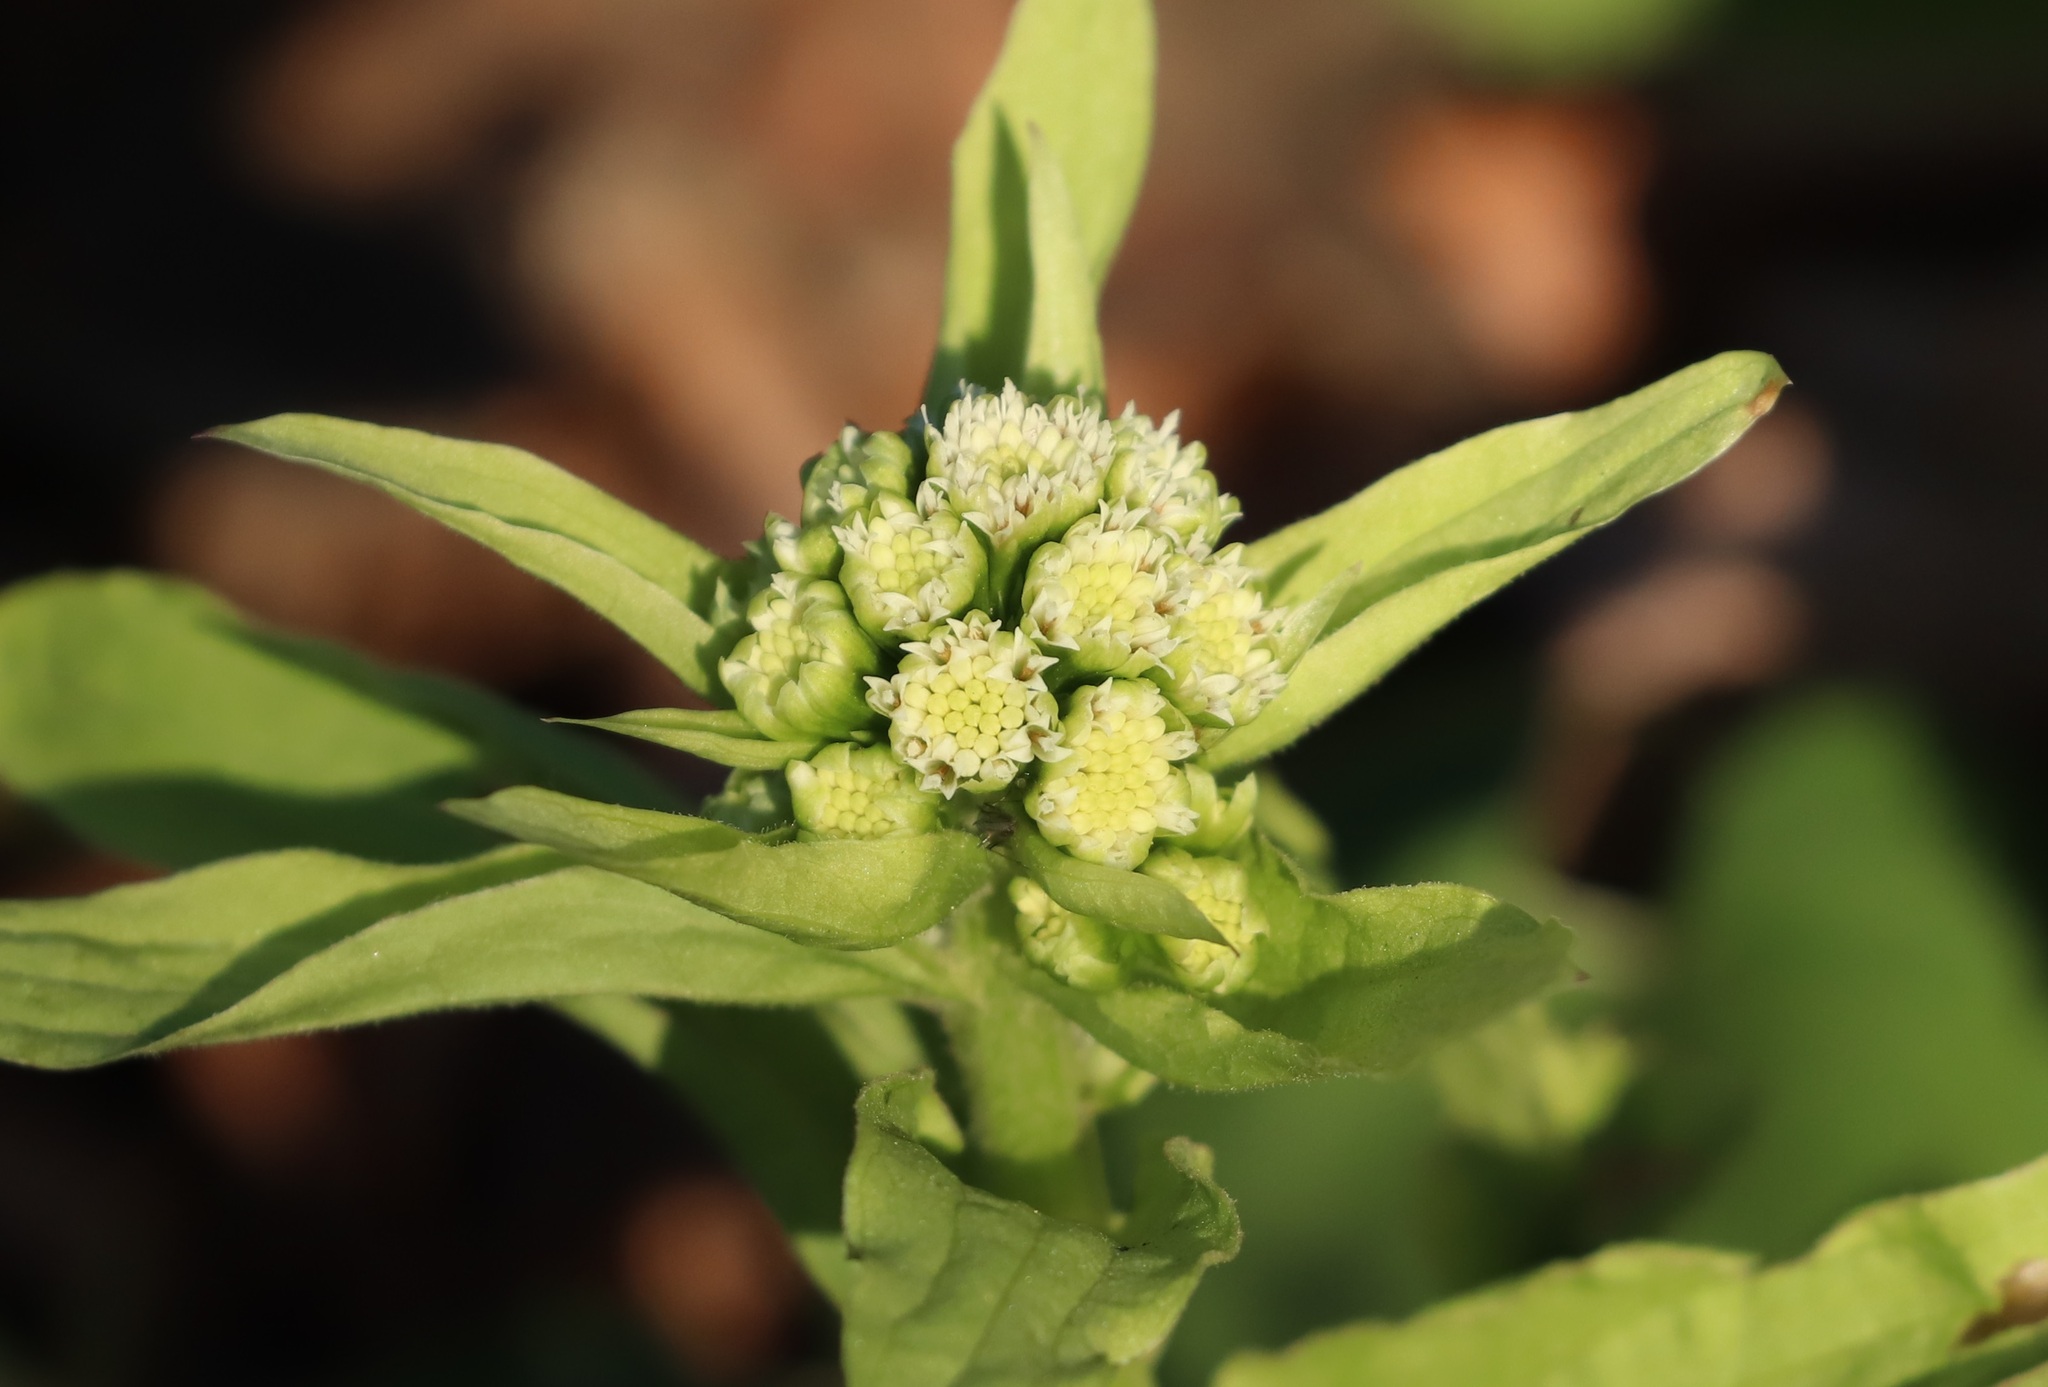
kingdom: Plantae
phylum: Tracheophyta
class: Magnoliopsida
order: Asterales
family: Asteraceae
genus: Petasites
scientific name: Petasites japonicus
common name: Giant butterbur
